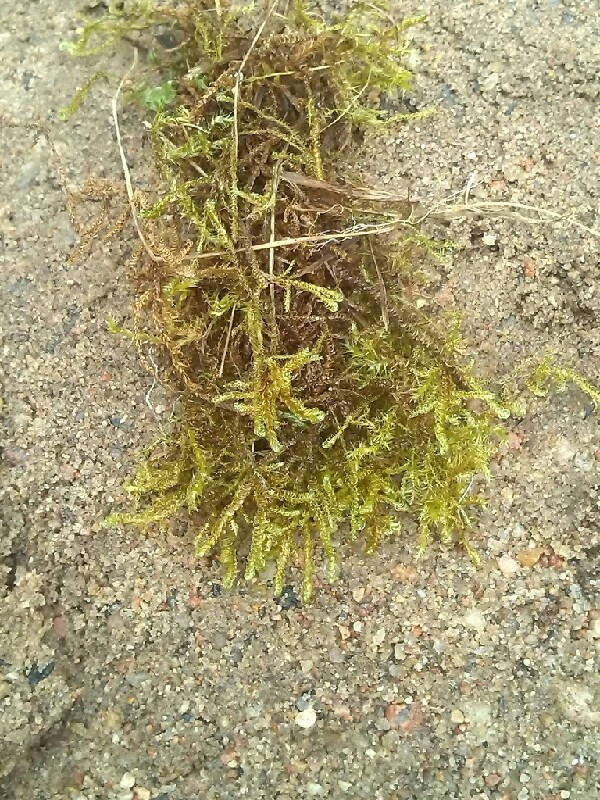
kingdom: Plantae
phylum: Bryophyta
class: Bryopsida
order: Hypnales
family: Scorpidiaceae
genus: Hamatocaulis
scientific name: Hamatocaulis vernicosus
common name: Varnished hook moss
